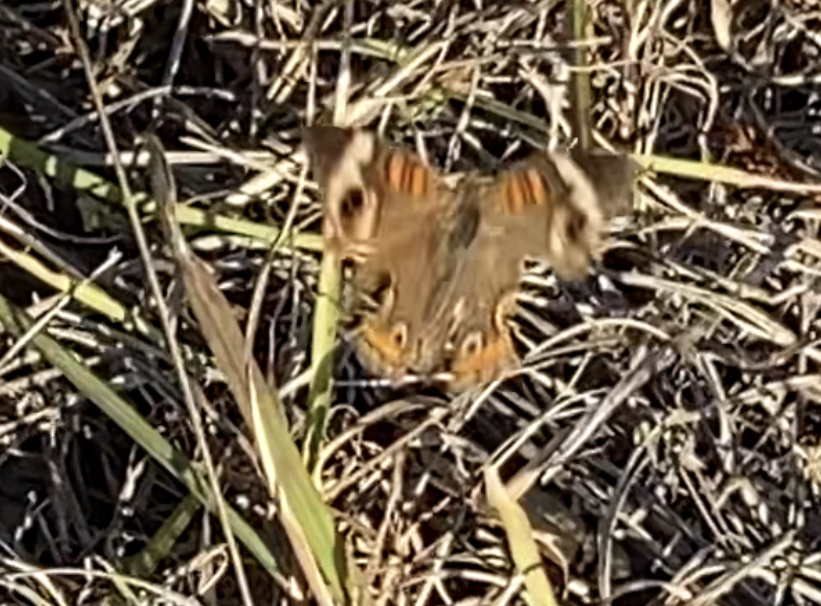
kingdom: Animalia
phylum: Arthropoda
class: Insecta
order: Lepidoptera
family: Nymphalidae
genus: Junonia
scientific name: Junonia coenia
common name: Common buckeye
